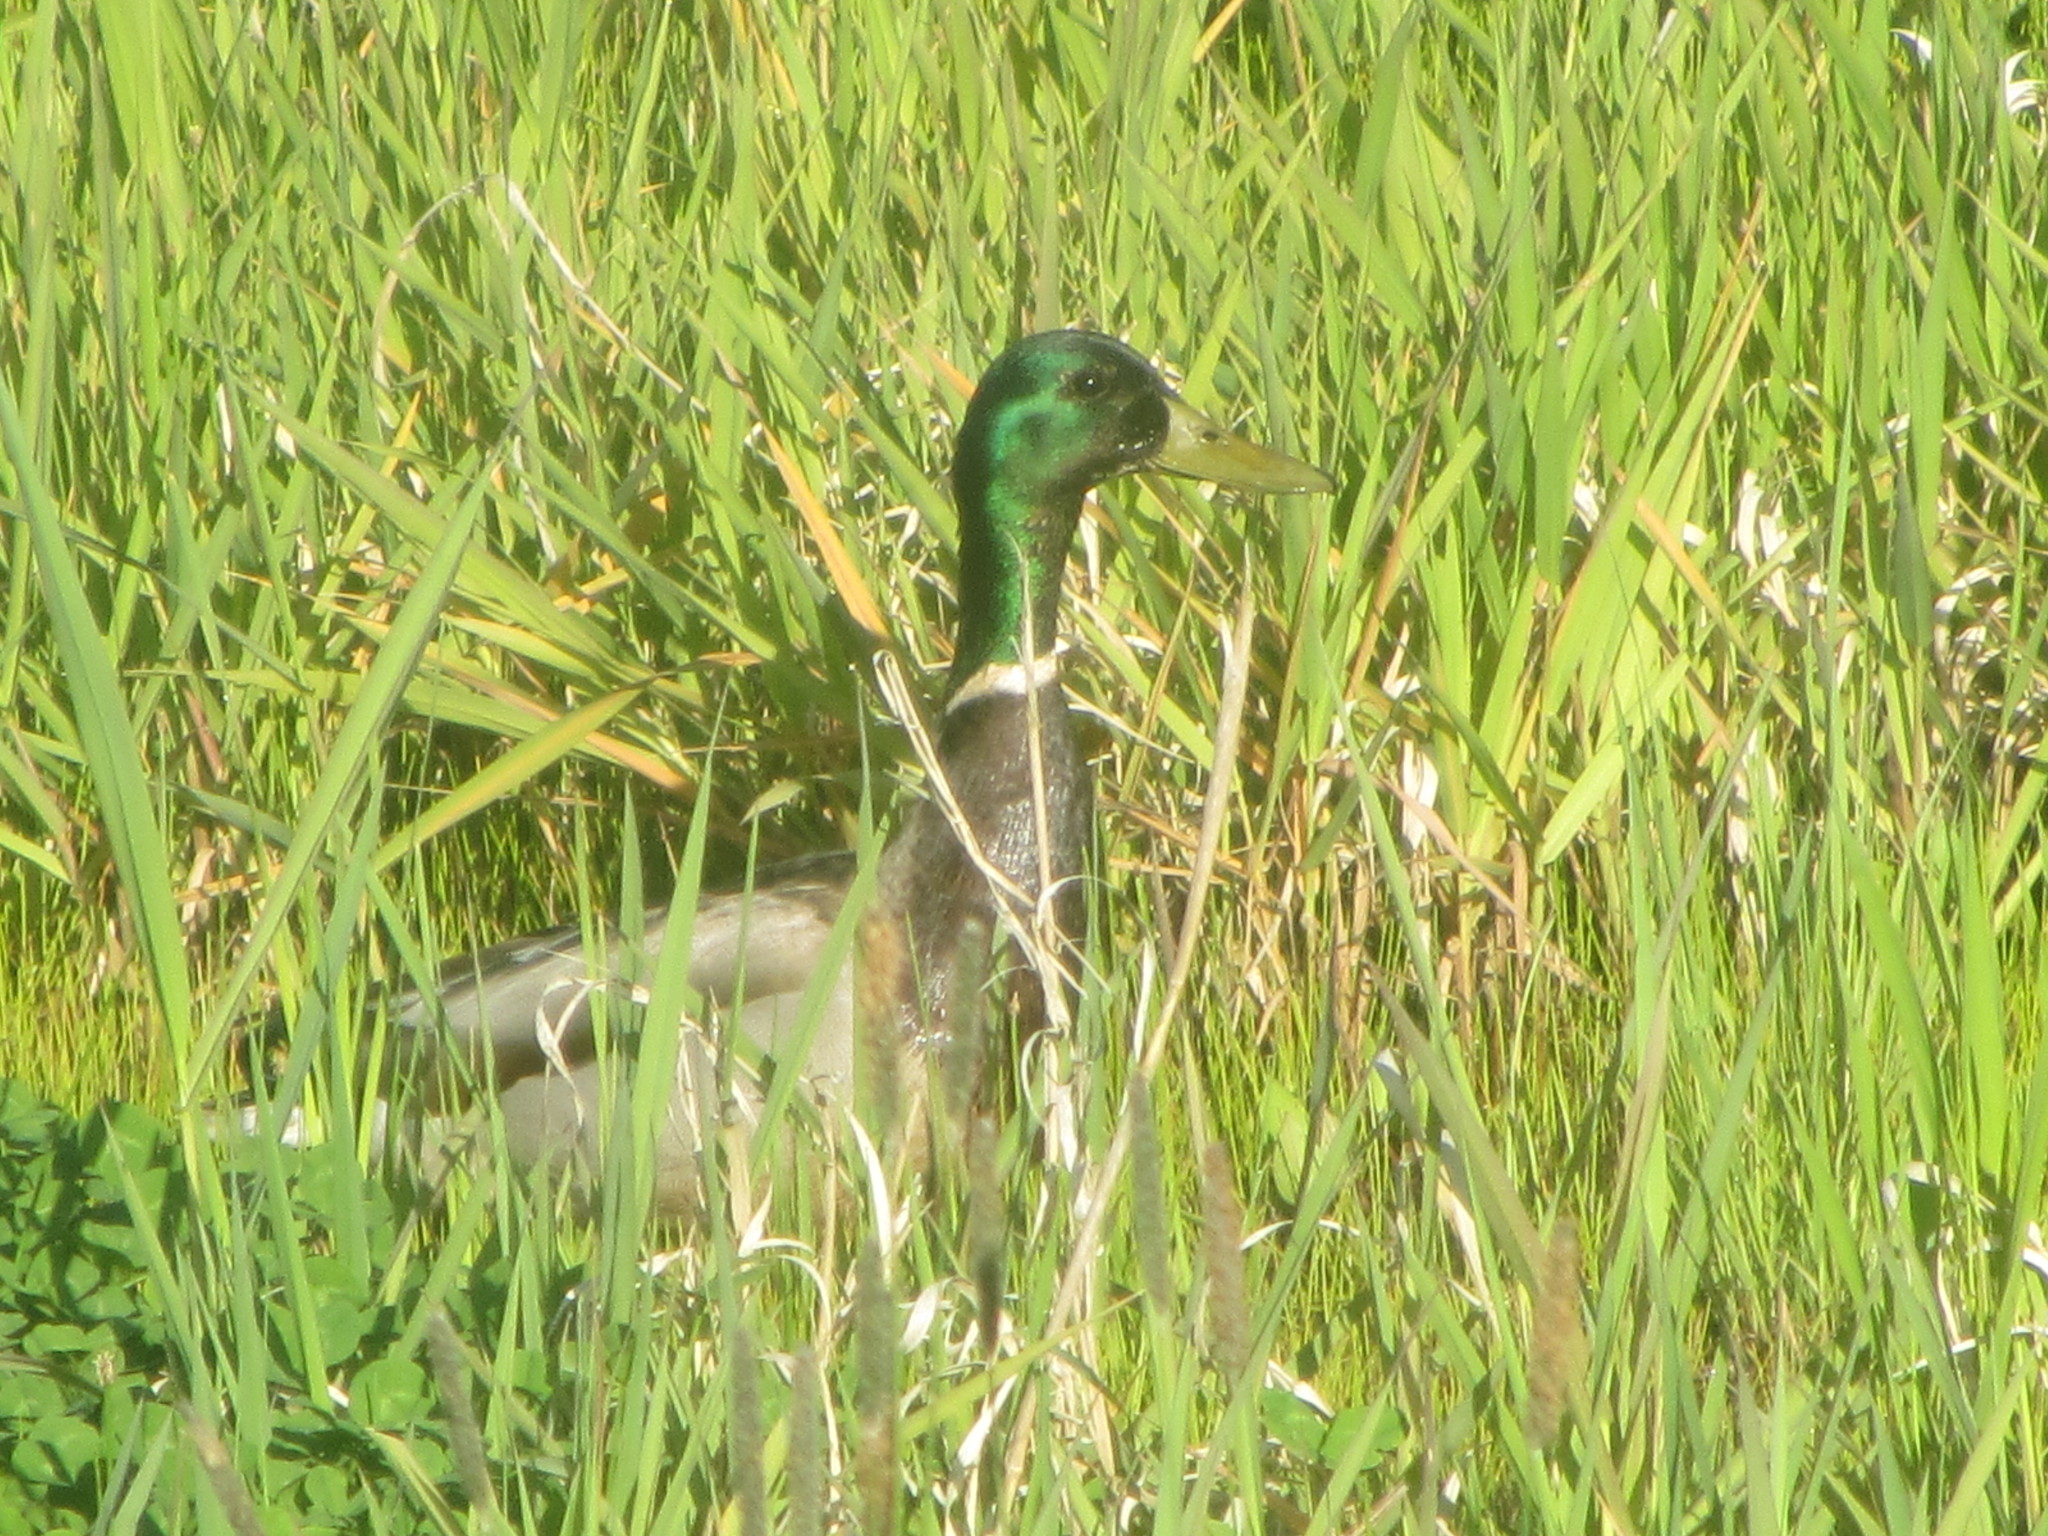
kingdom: Animalia
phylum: Chordata
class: Aves
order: Anseriformes
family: Anatidae
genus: Anas
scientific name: Anas platyrhynchos
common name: Mallard
